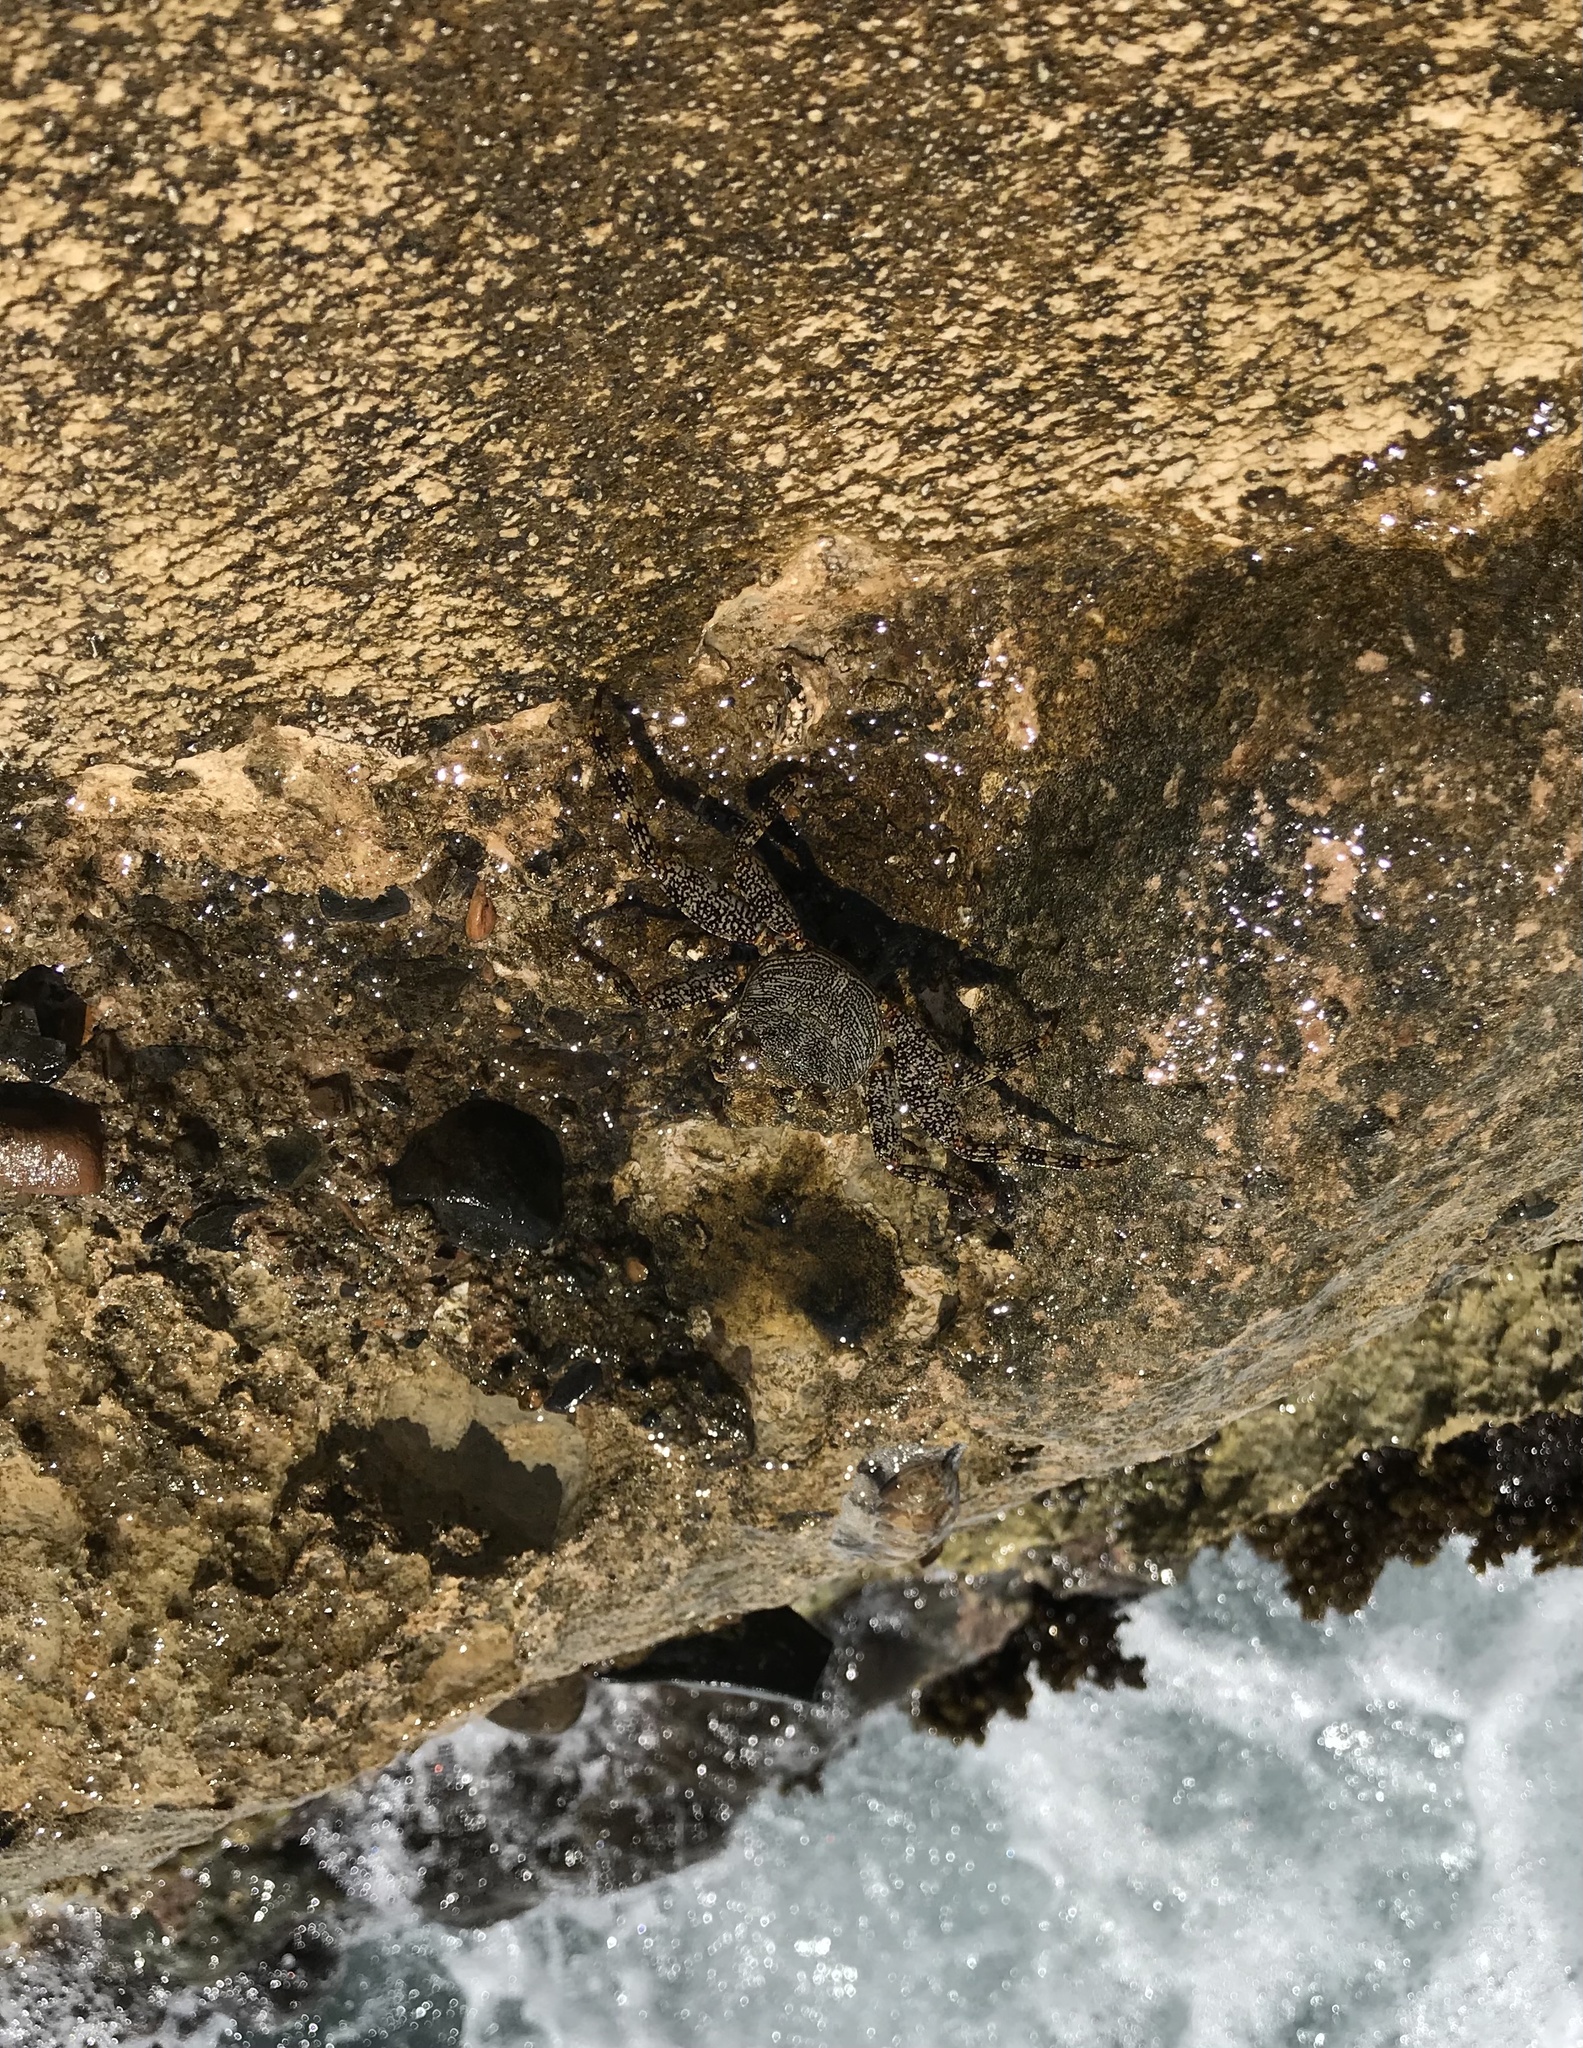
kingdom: Animalia
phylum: Arthropoda
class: Malacostraca
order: Decapoda
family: Grapsidae
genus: Grapsus
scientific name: Grapsus grapsus
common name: Sally lightfoot
